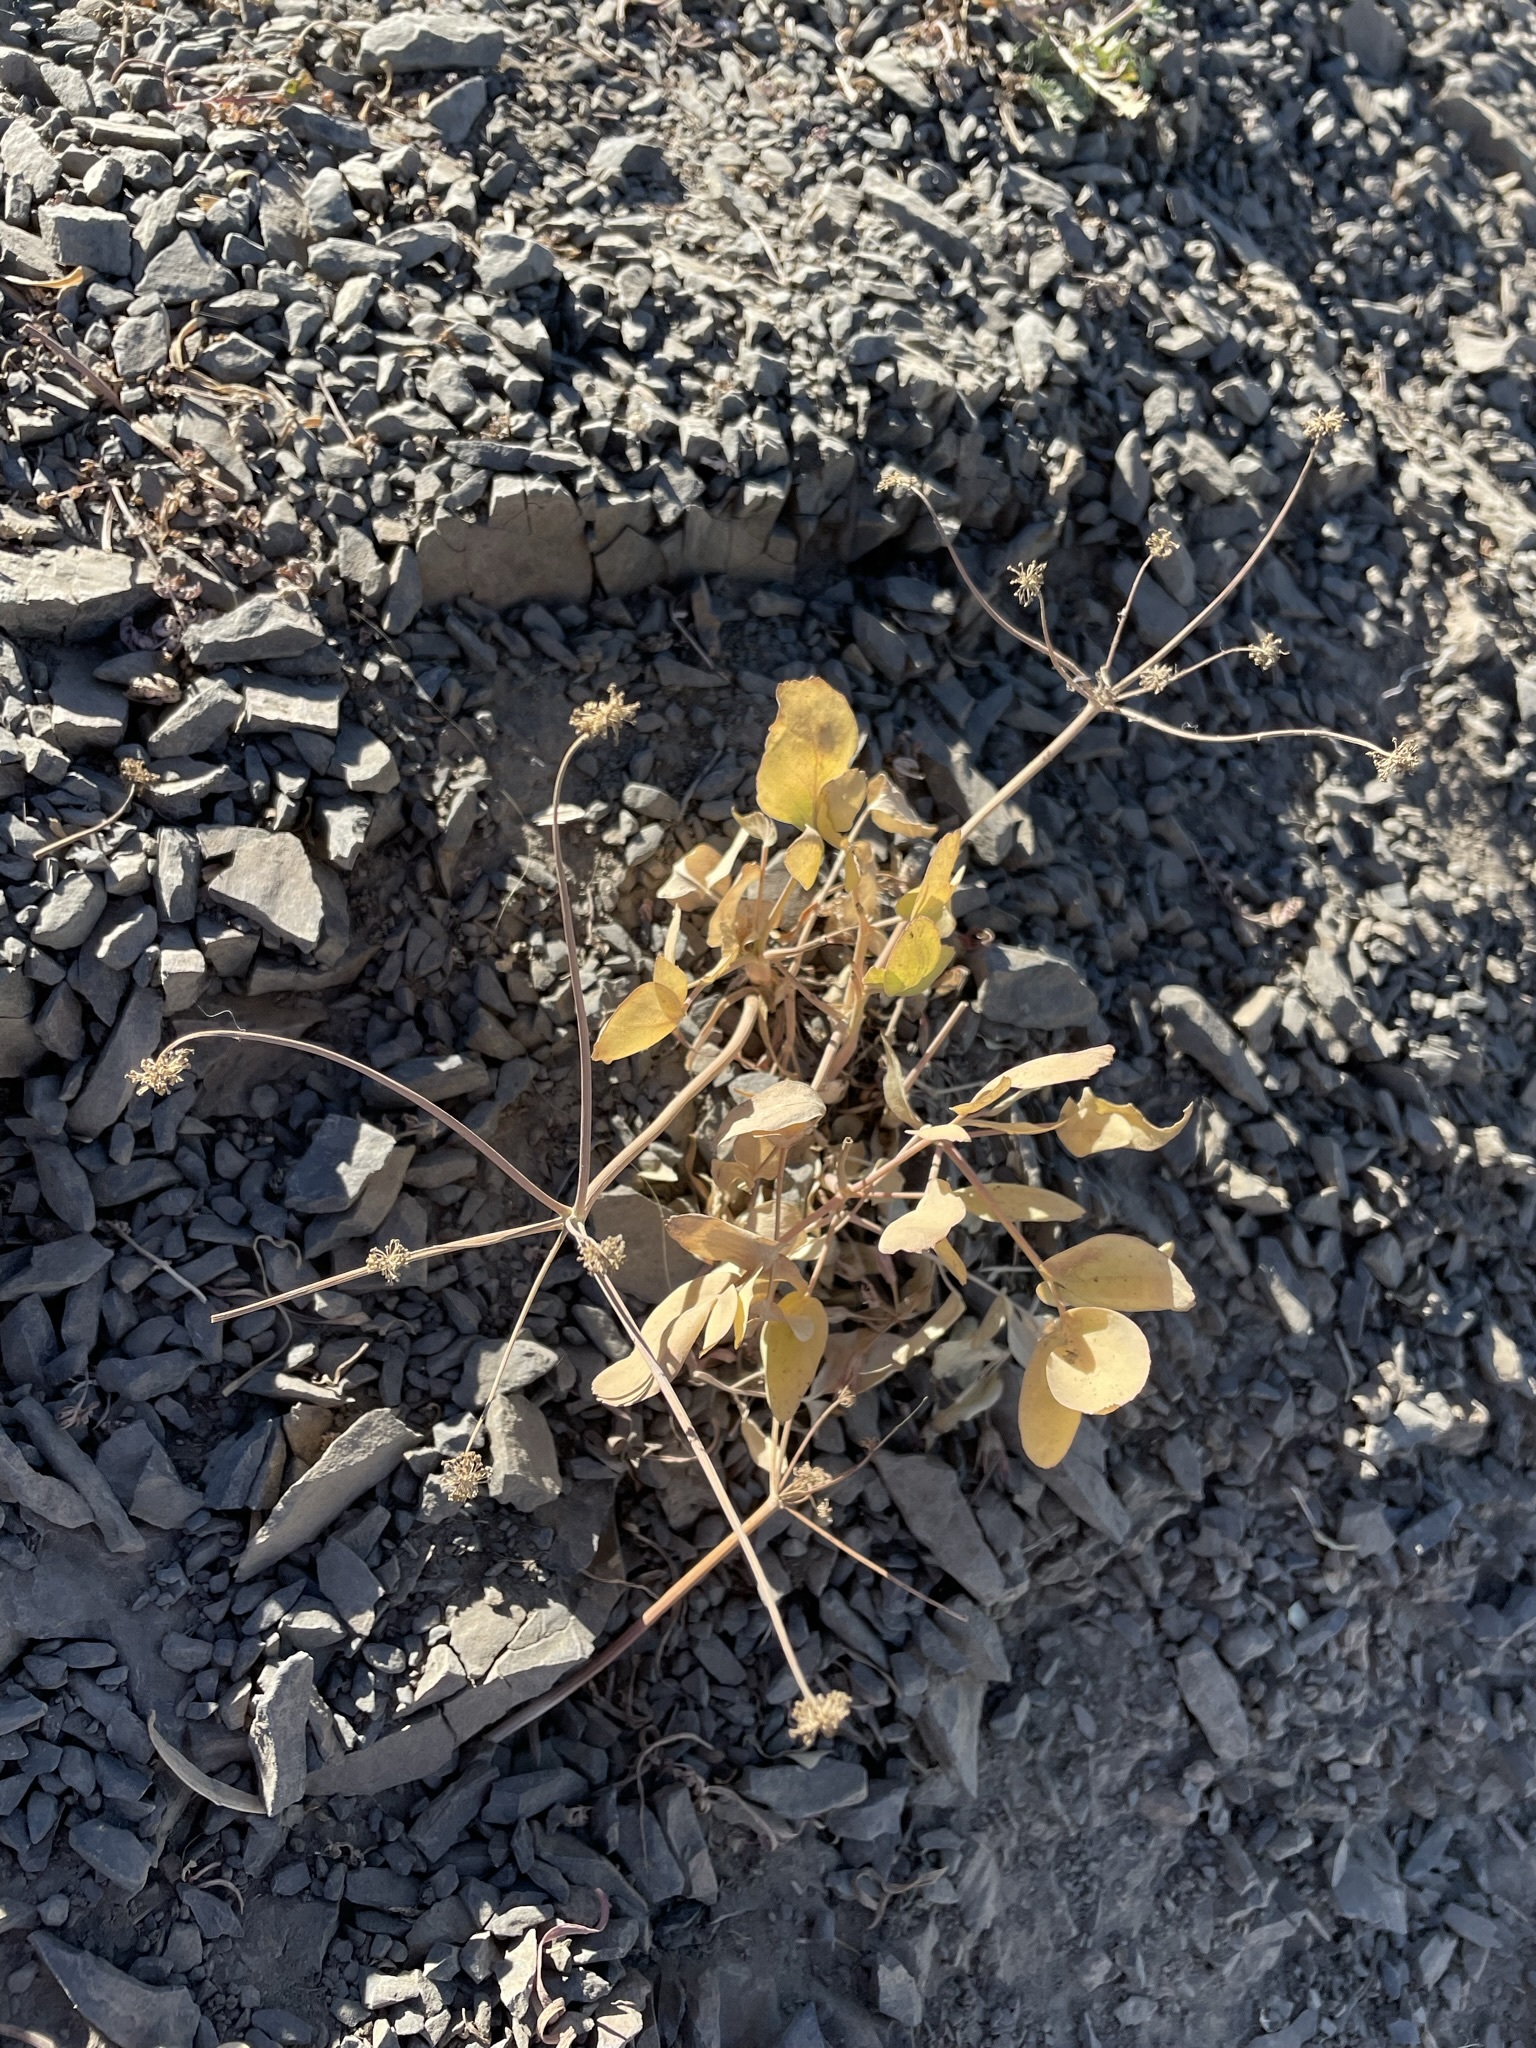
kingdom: Plantae
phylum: Tracheophyta
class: Magnoliopsida
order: Apiales
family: Apiaceae
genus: Lomatium
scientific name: Lomatium nudicaule
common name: Pestle lomatium
